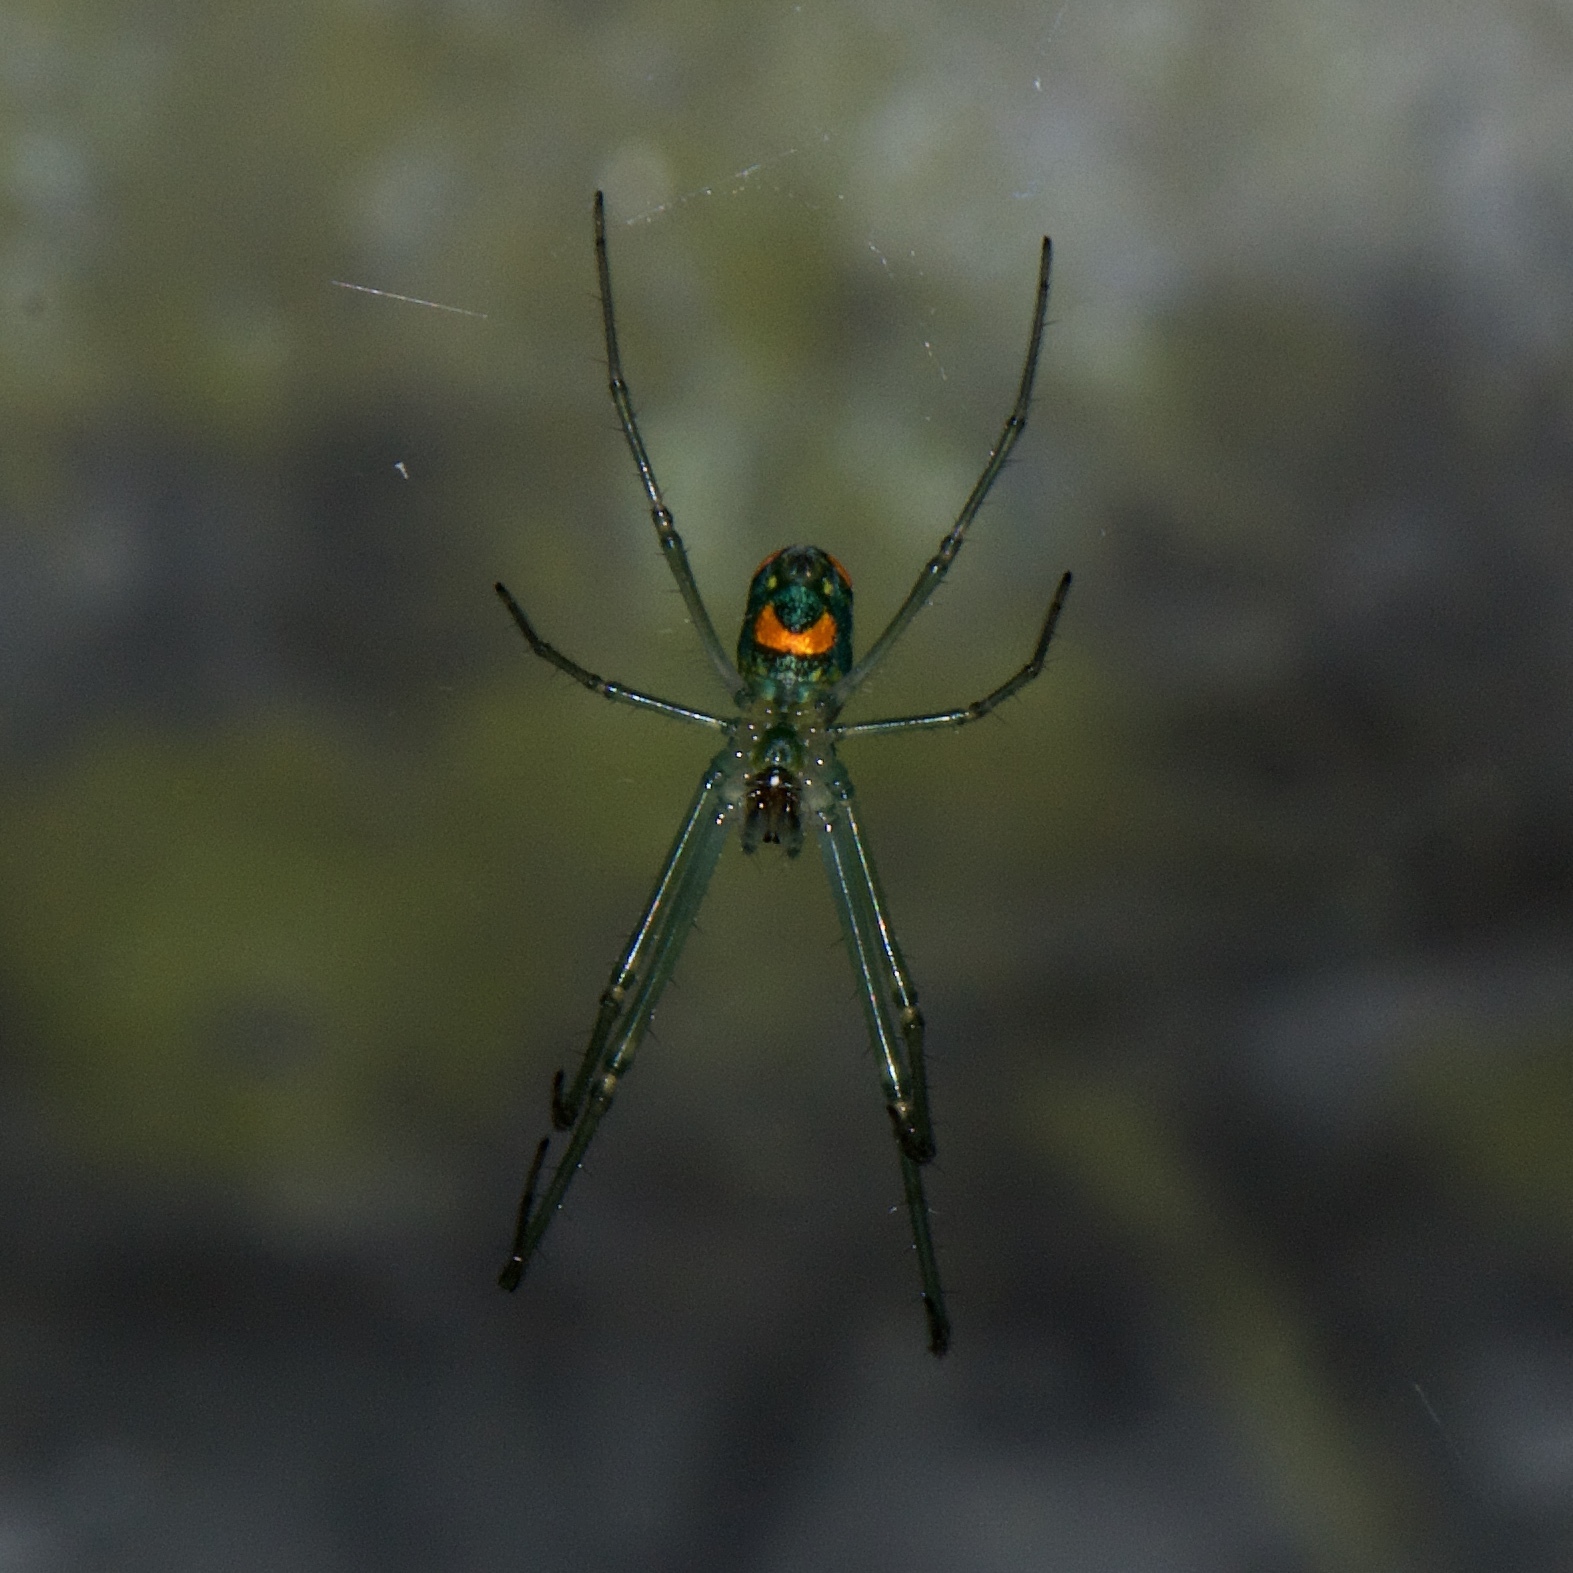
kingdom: Animalia
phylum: Arthropoda
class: Arachnida
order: Araneae
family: Tetragnathidae
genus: Leucauge
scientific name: Leucauge argyrobapta
